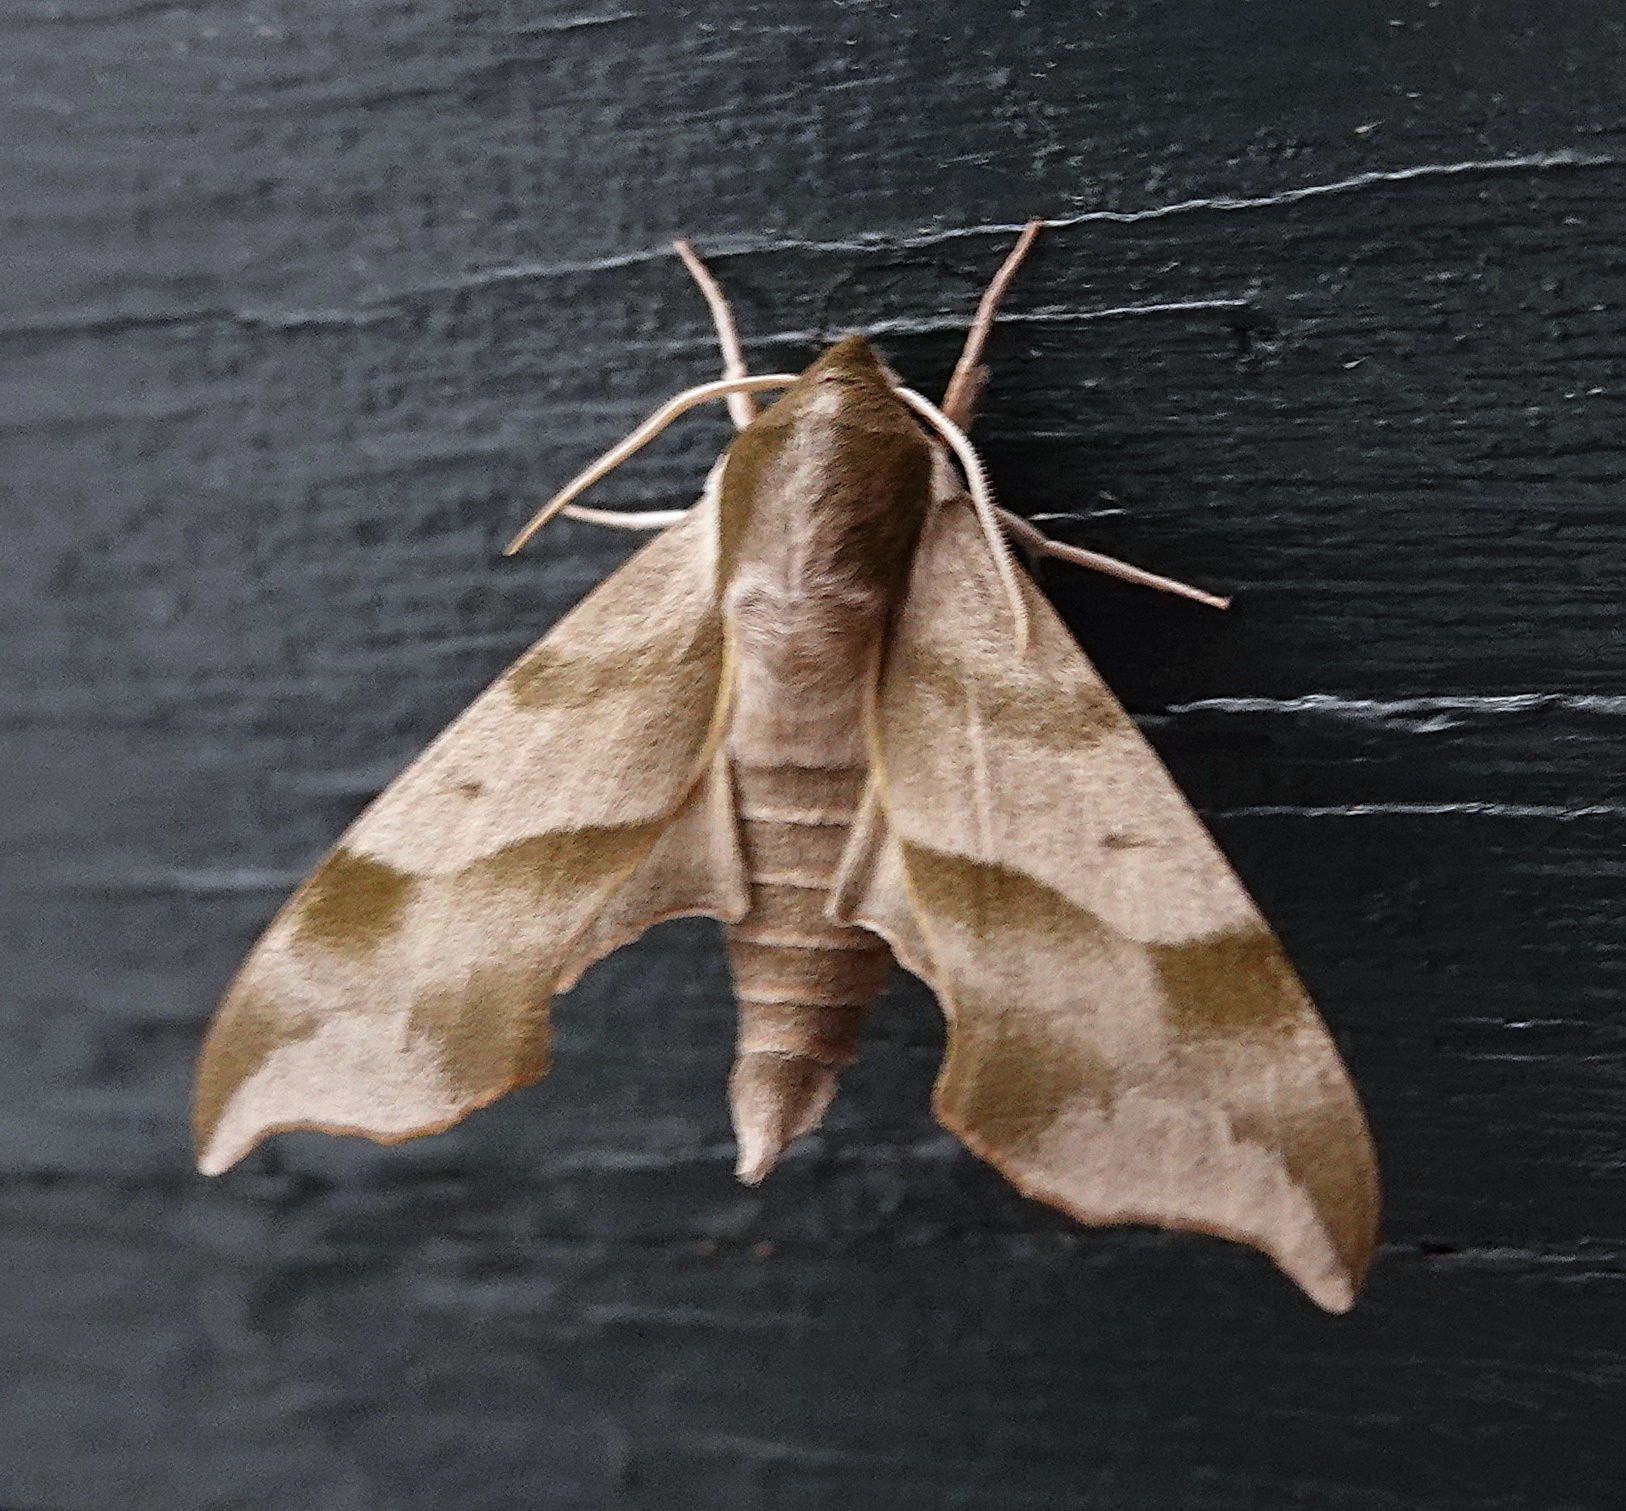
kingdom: Animalia
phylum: Arthropoda
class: Insecta
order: Lepidoptera
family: Sphingidae
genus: Darapsa
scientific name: Darapsa myron
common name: Hog sphinx
